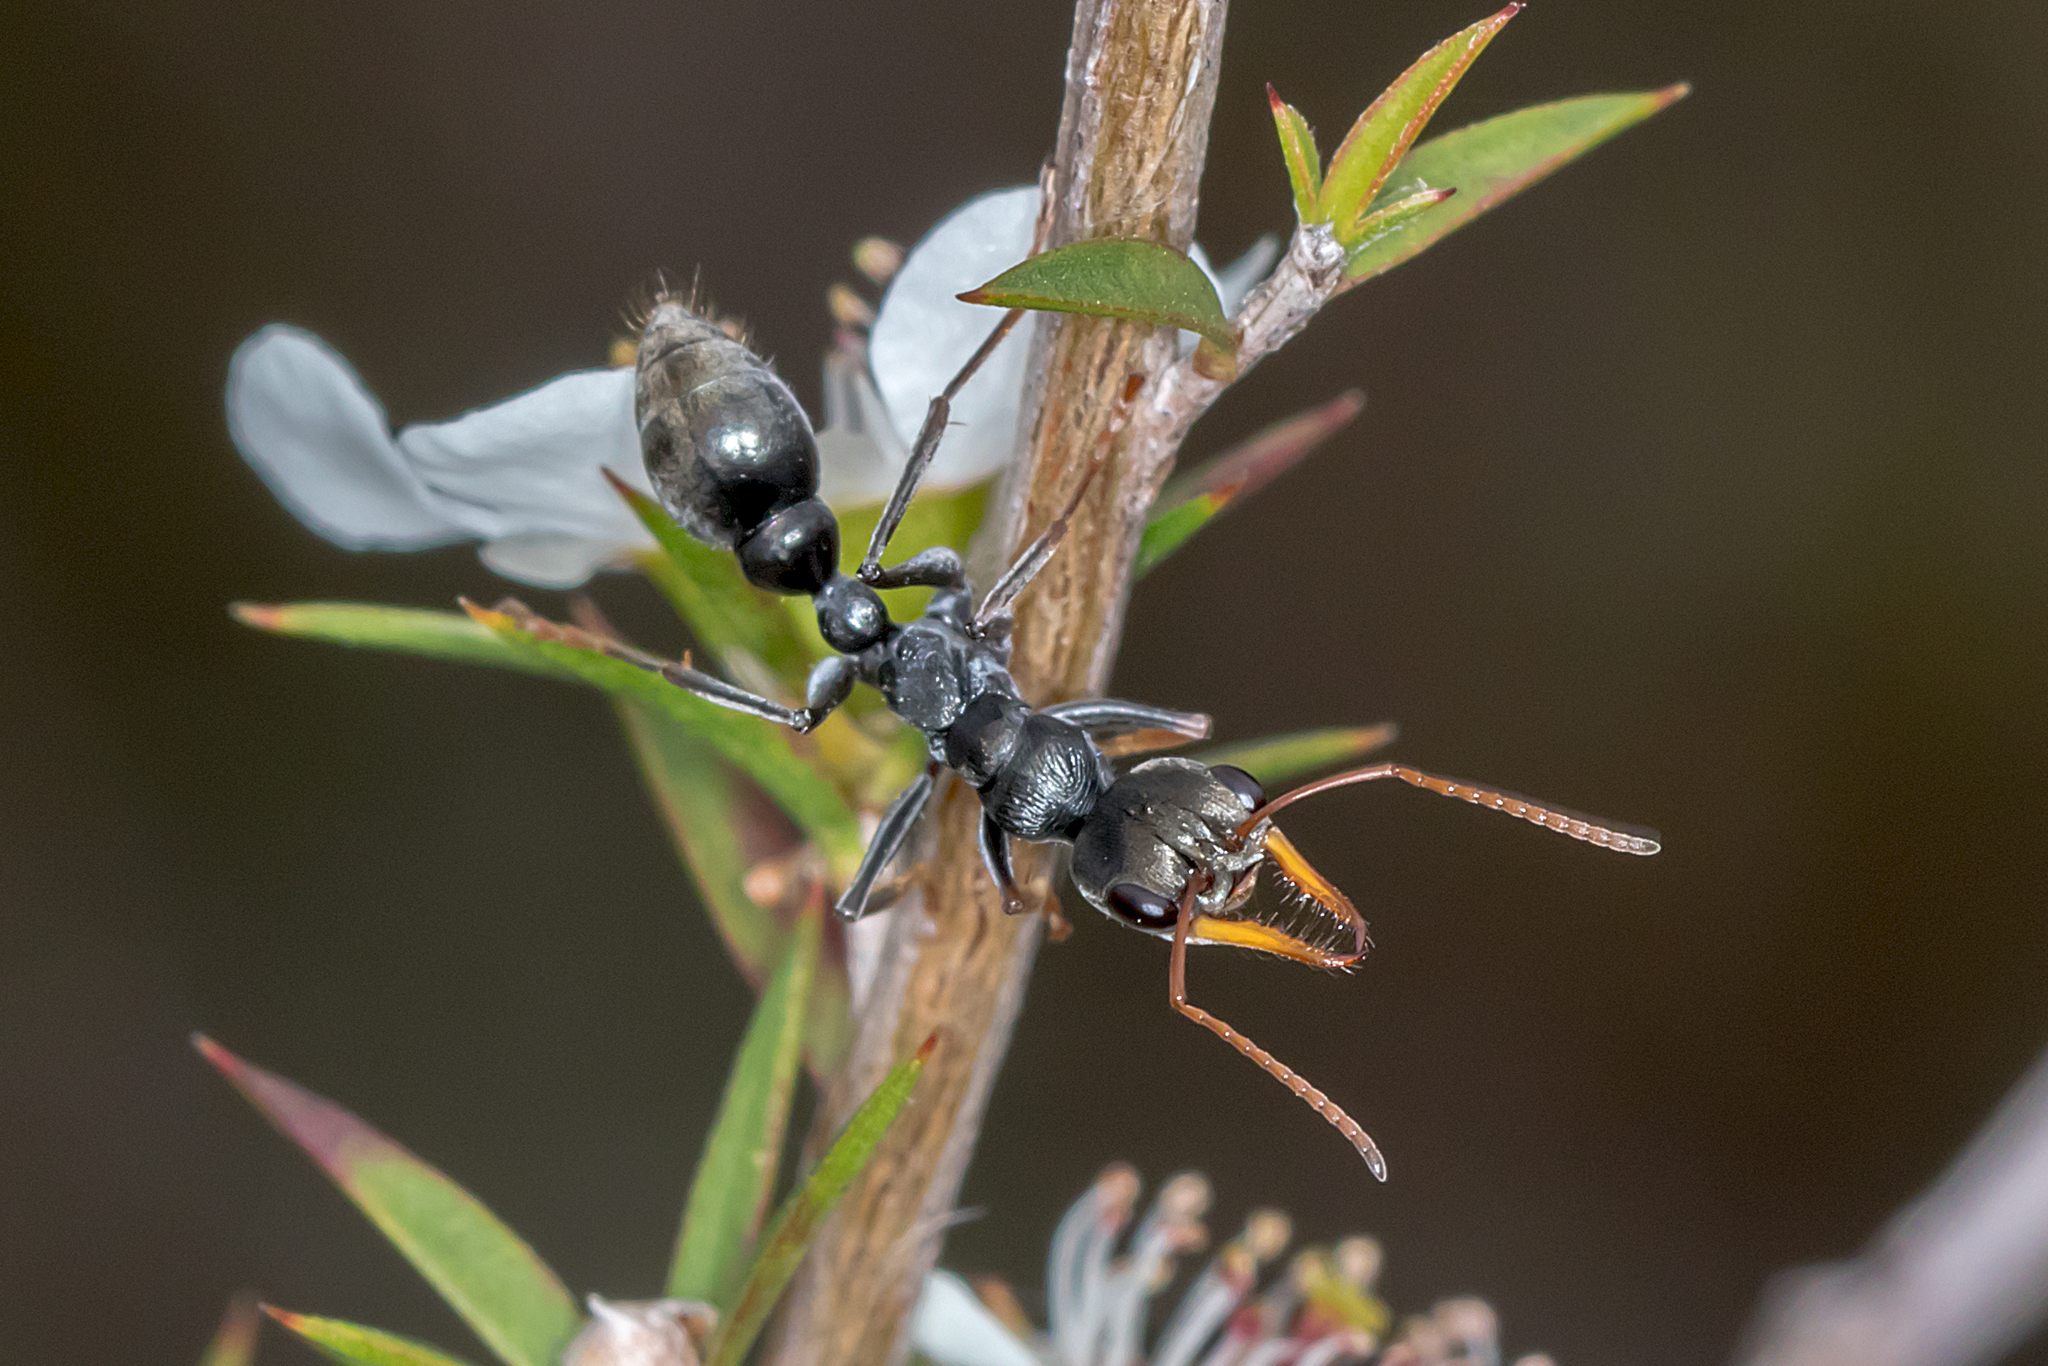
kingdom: Animalia
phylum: Arthropoda
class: Insecta
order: Hymenoptera
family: Formicidae
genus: Myrmecia
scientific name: Myrmecia pilosula
